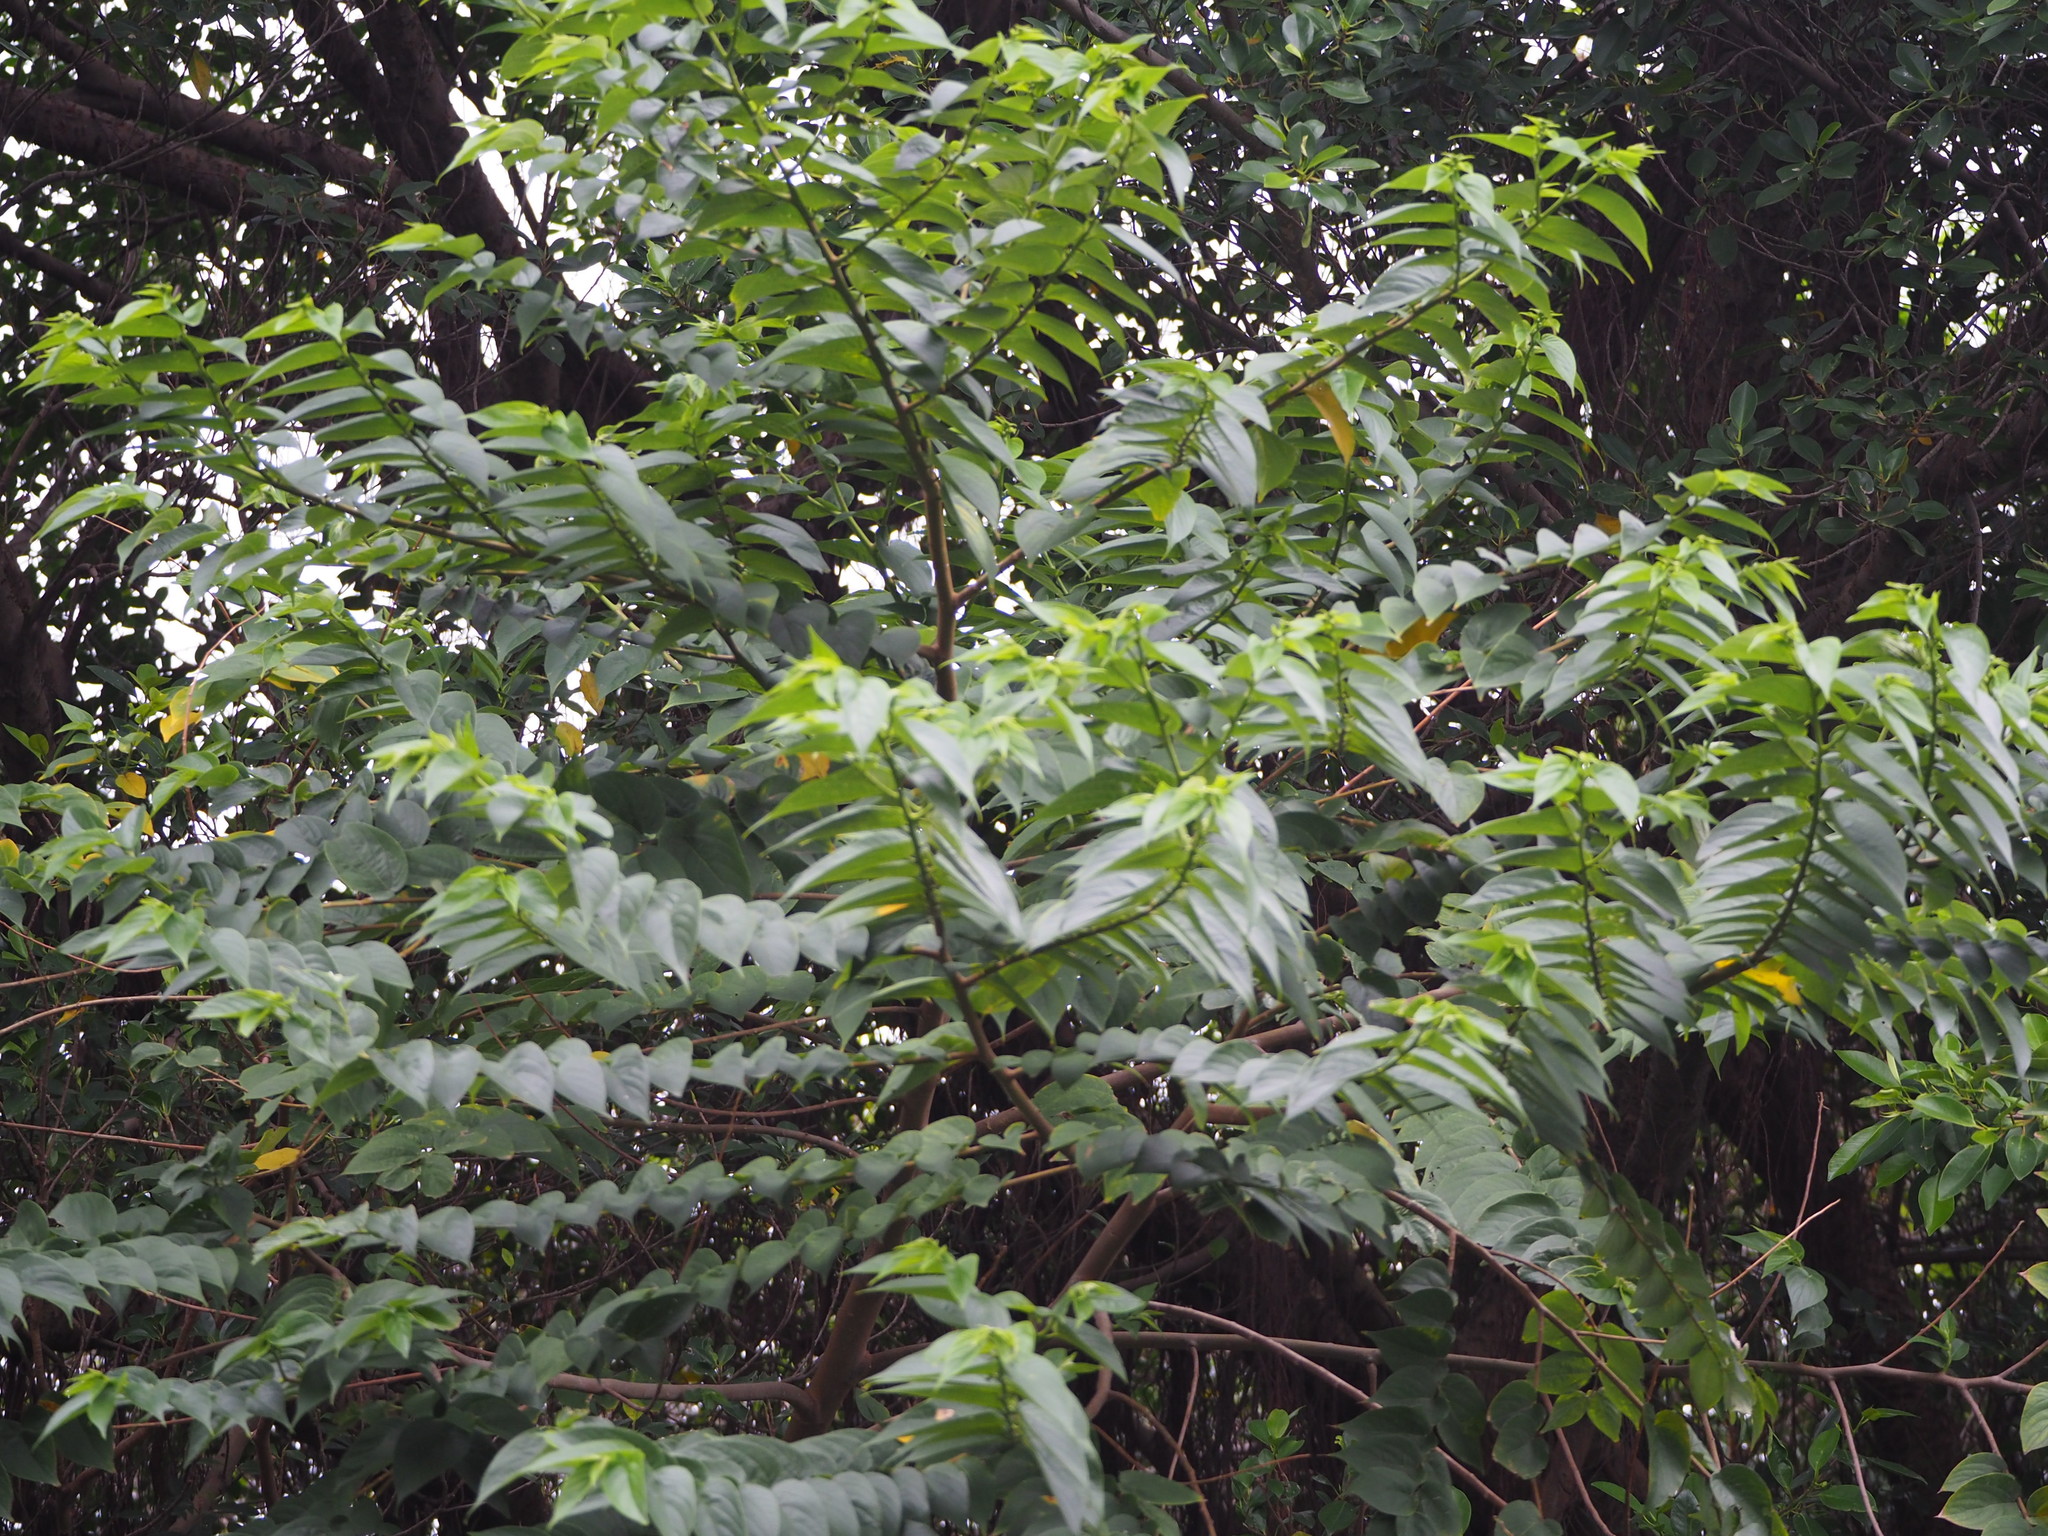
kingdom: Plantae
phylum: Tracheophyta
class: Magnoliopsida
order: Rosales
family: Cannabaceae
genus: Trema
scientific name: Trema orientale
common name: Indian charcoal tree
